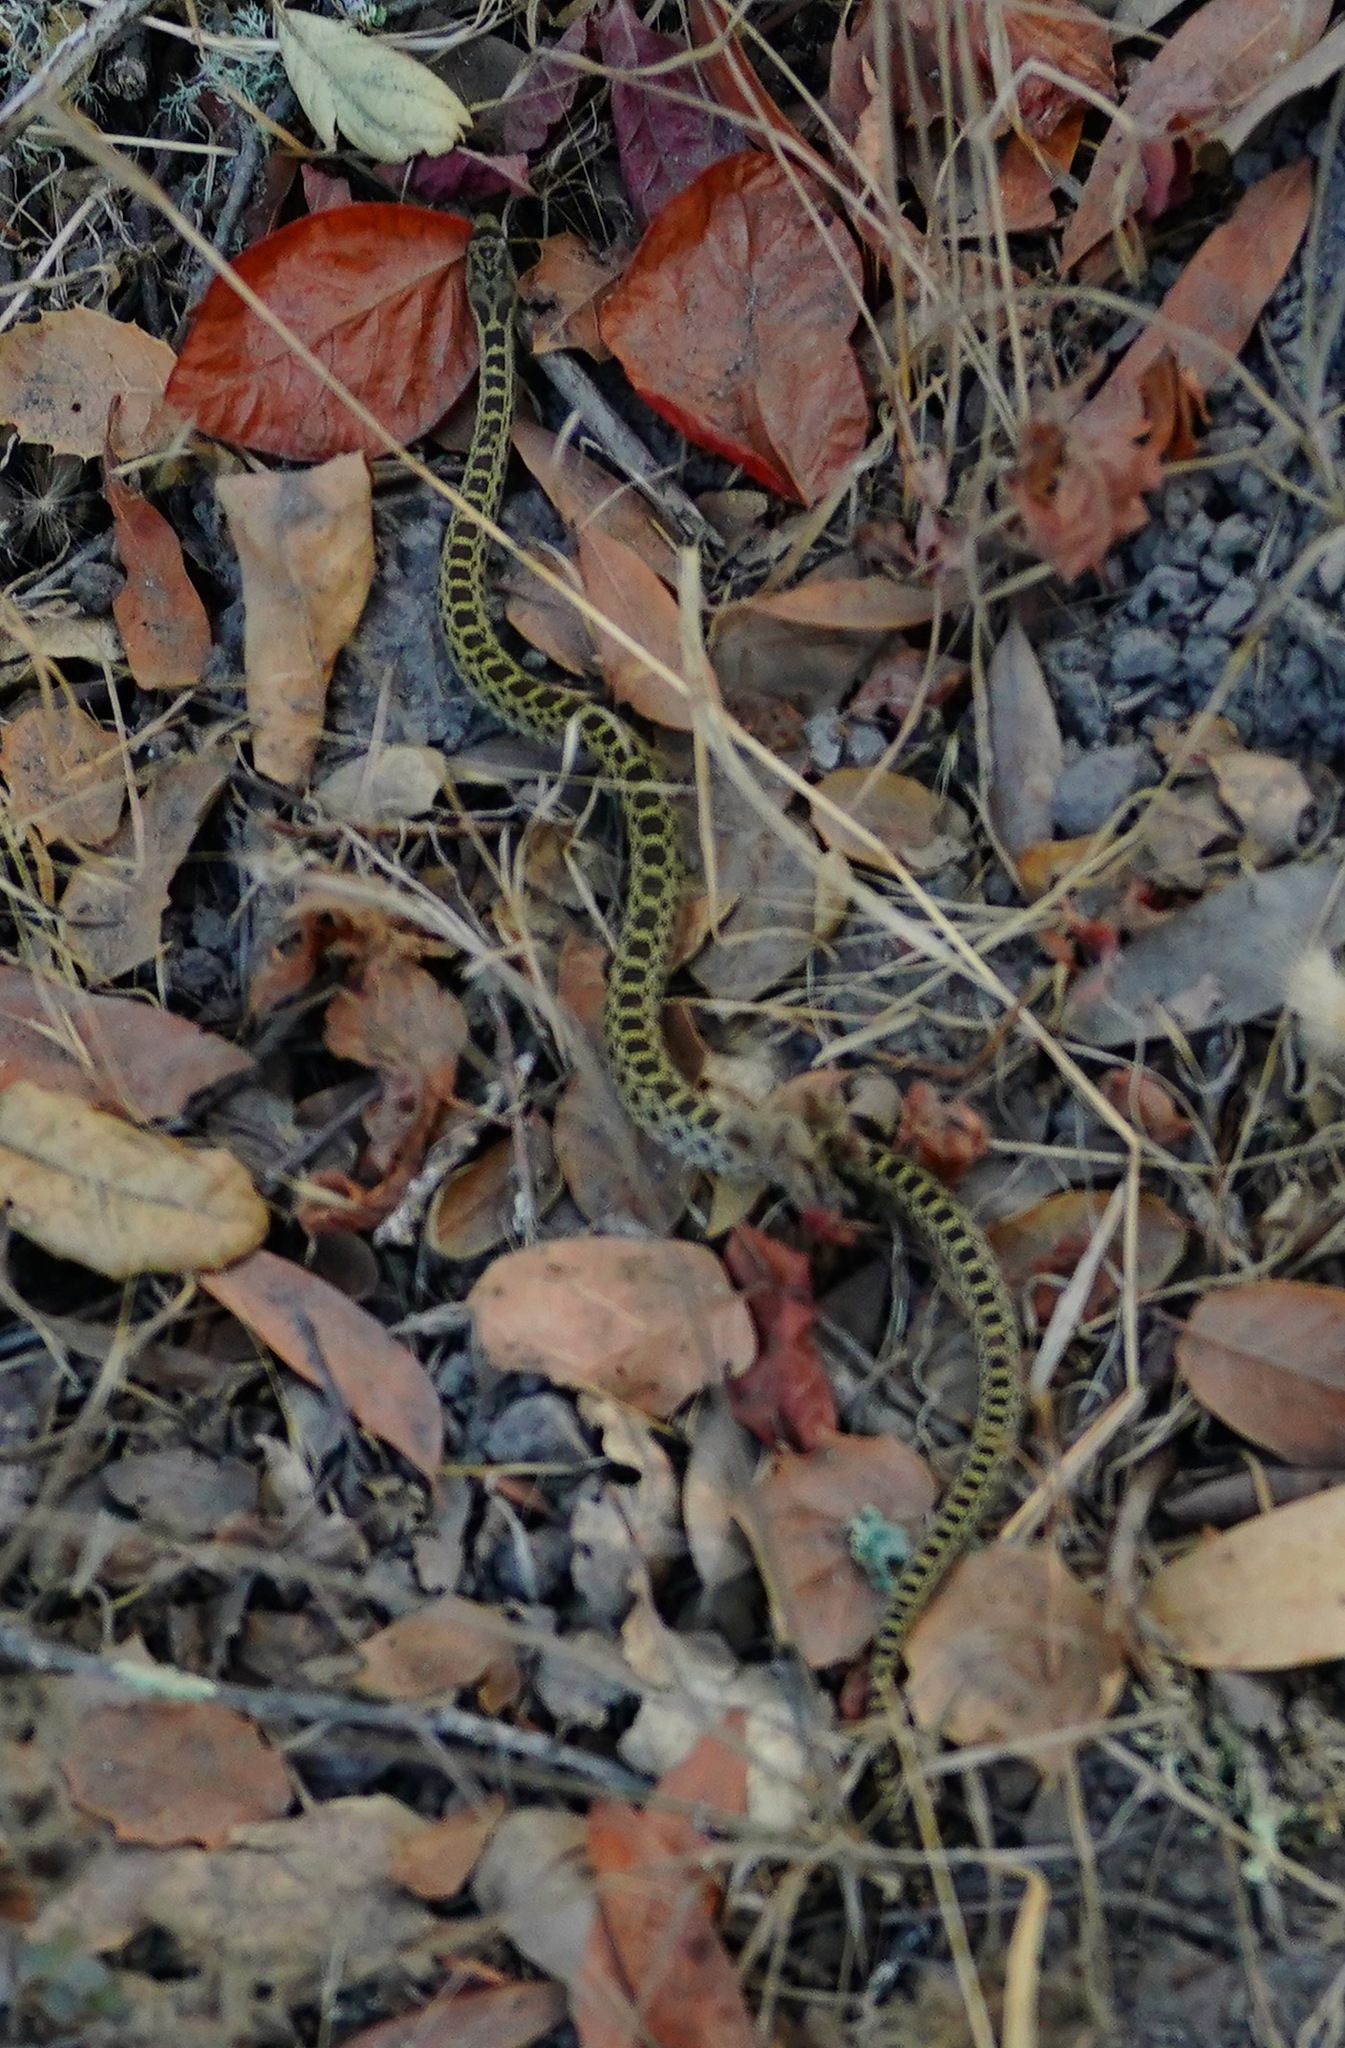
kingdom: Animalia
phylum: Chordata
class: Squamata
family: Colubridae
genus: Pituophis
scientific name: Pituophis catenifer
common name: Gopher snake
